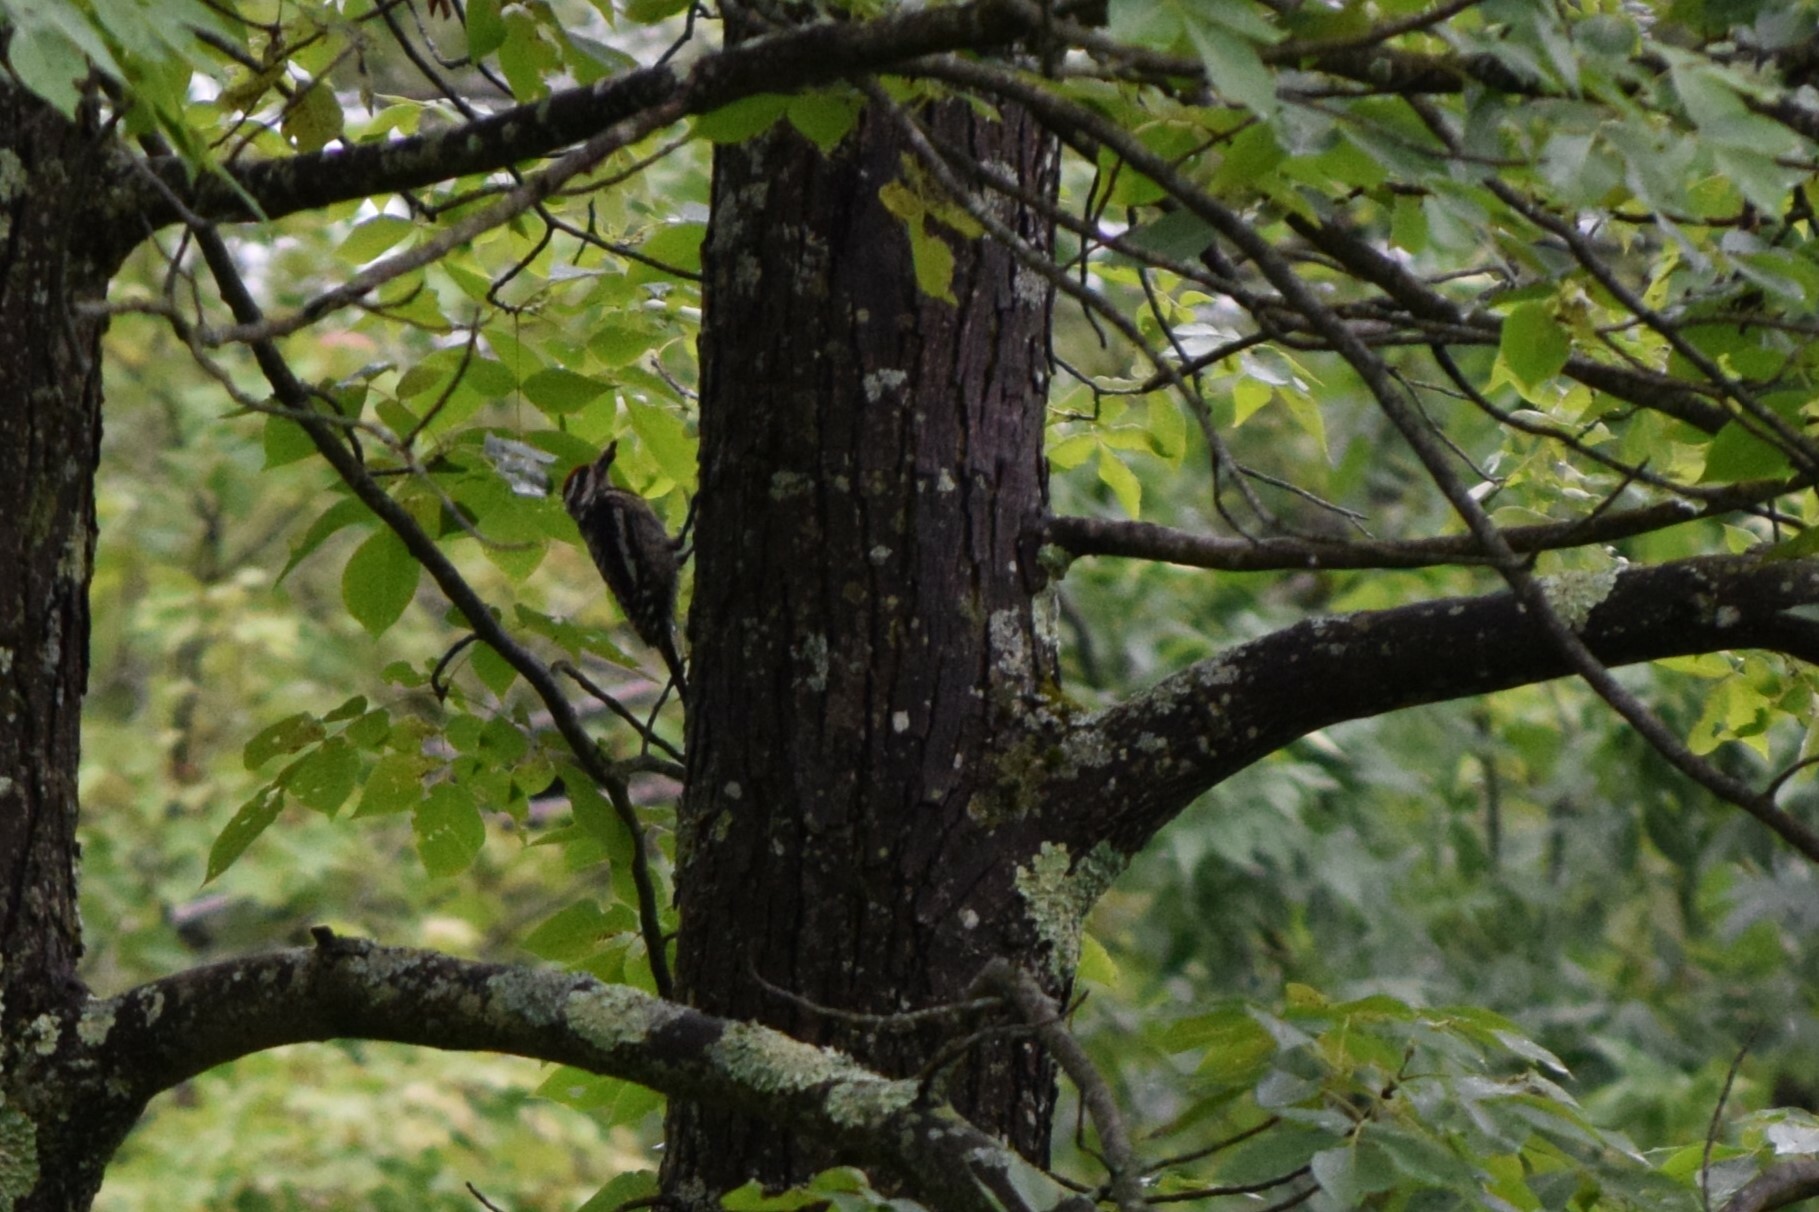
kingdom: Animalia
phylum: Chordata
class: Aves
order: Piciformes
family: Picidae
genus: Sphyrapicus
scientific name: Sphyrapicus varius
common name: Yellow-bellied sapsucker
